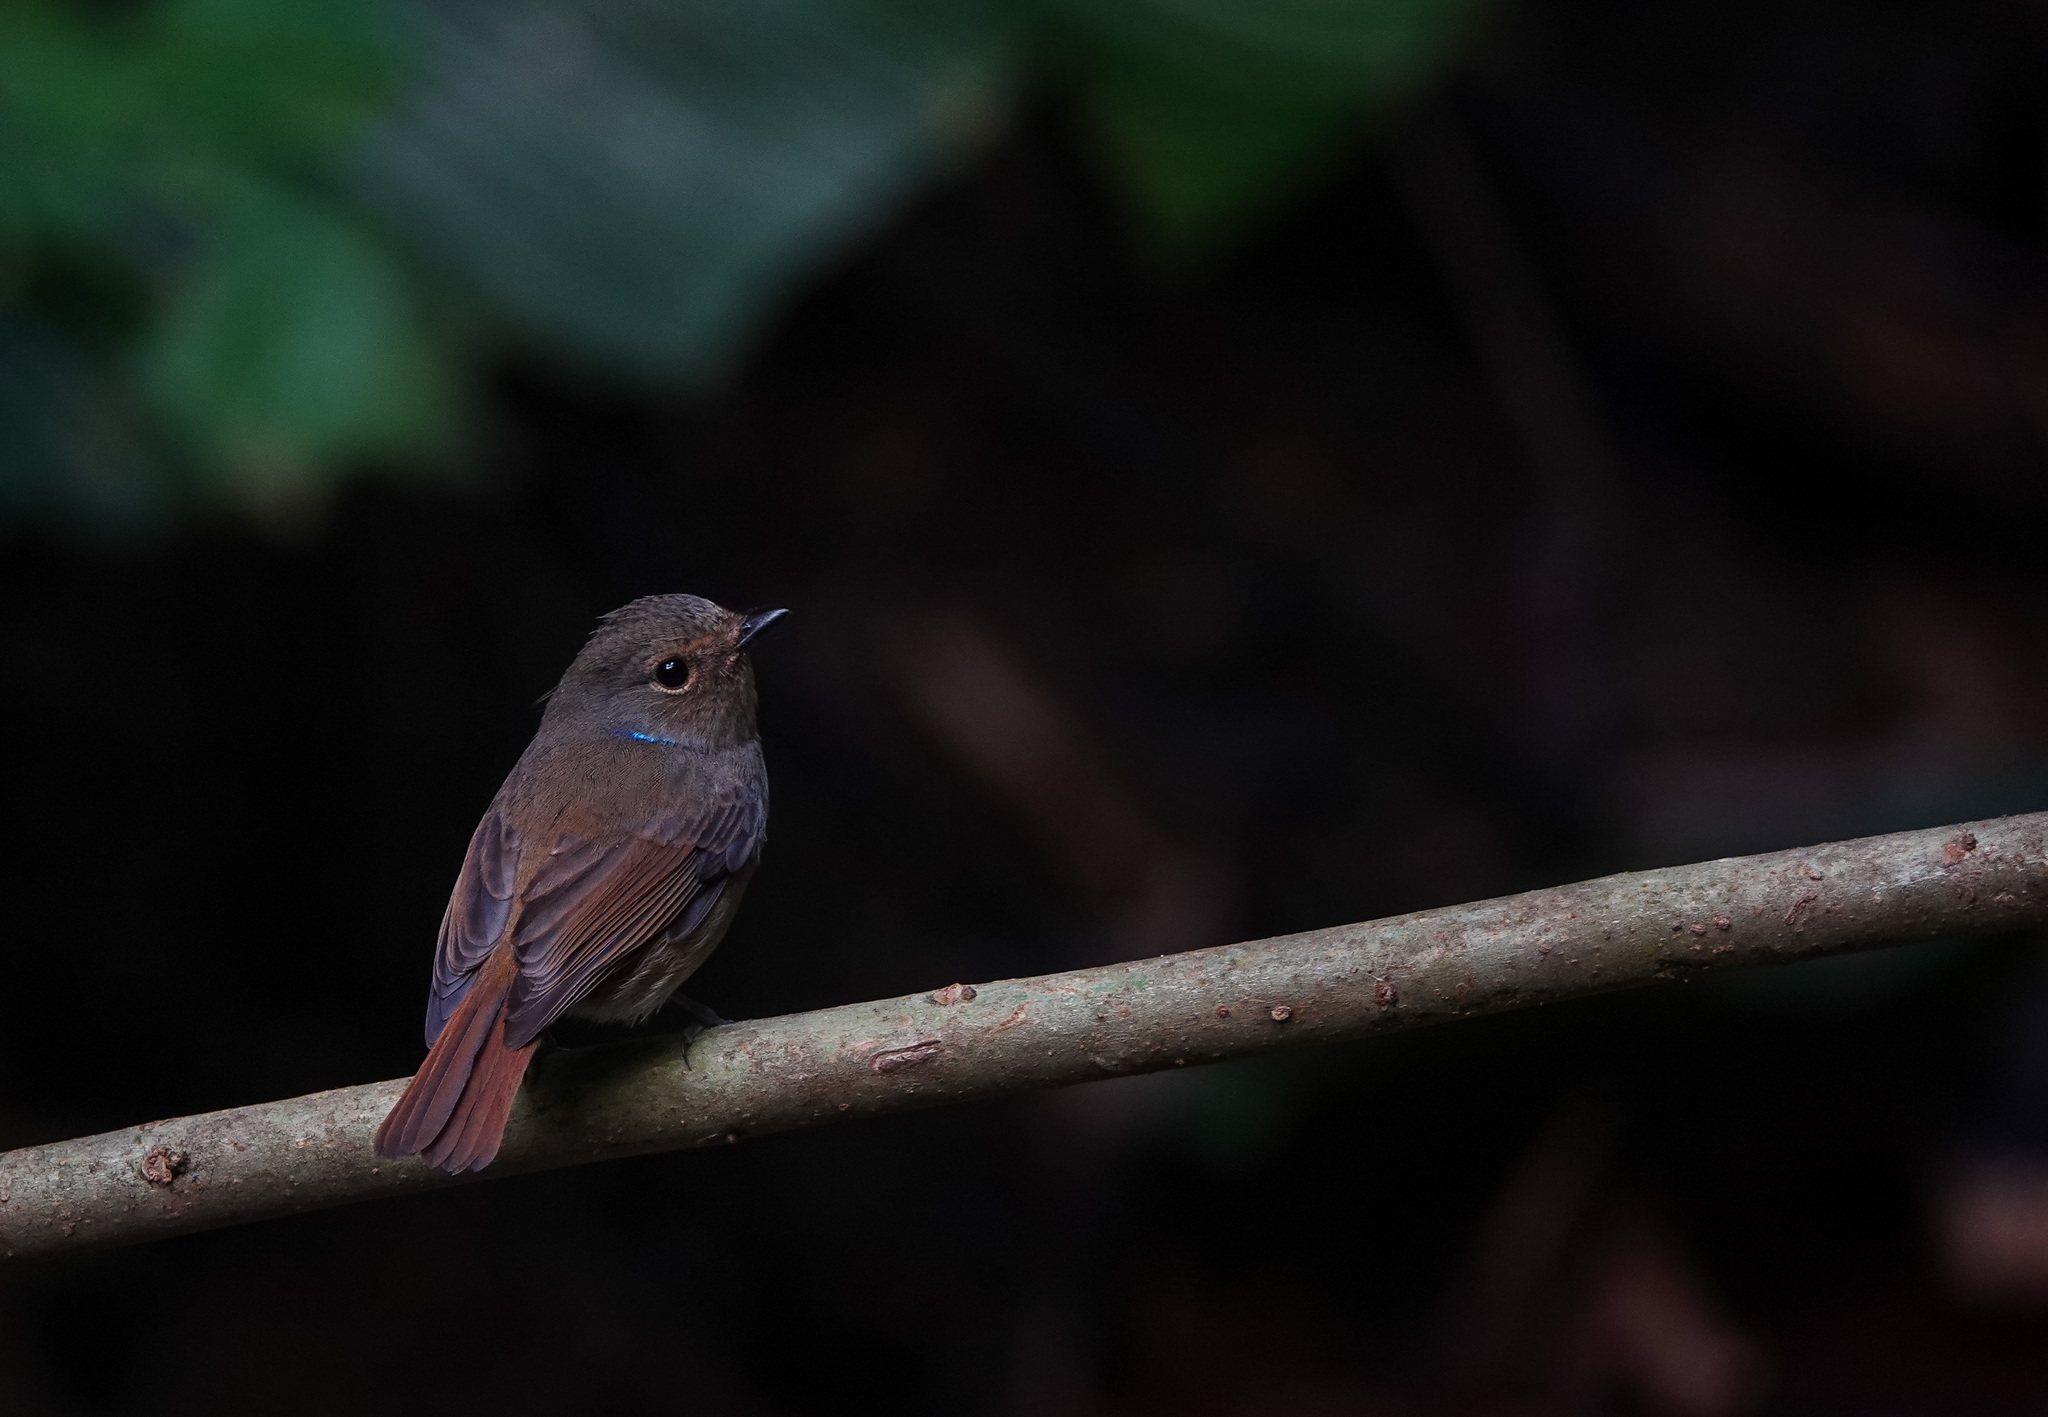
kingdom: Animalia
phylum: Chordata
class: Aves
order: Passeriformes
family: Muscicapidae
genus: Niltava
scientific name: Niltava macgrigoriae
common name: Small niltava
